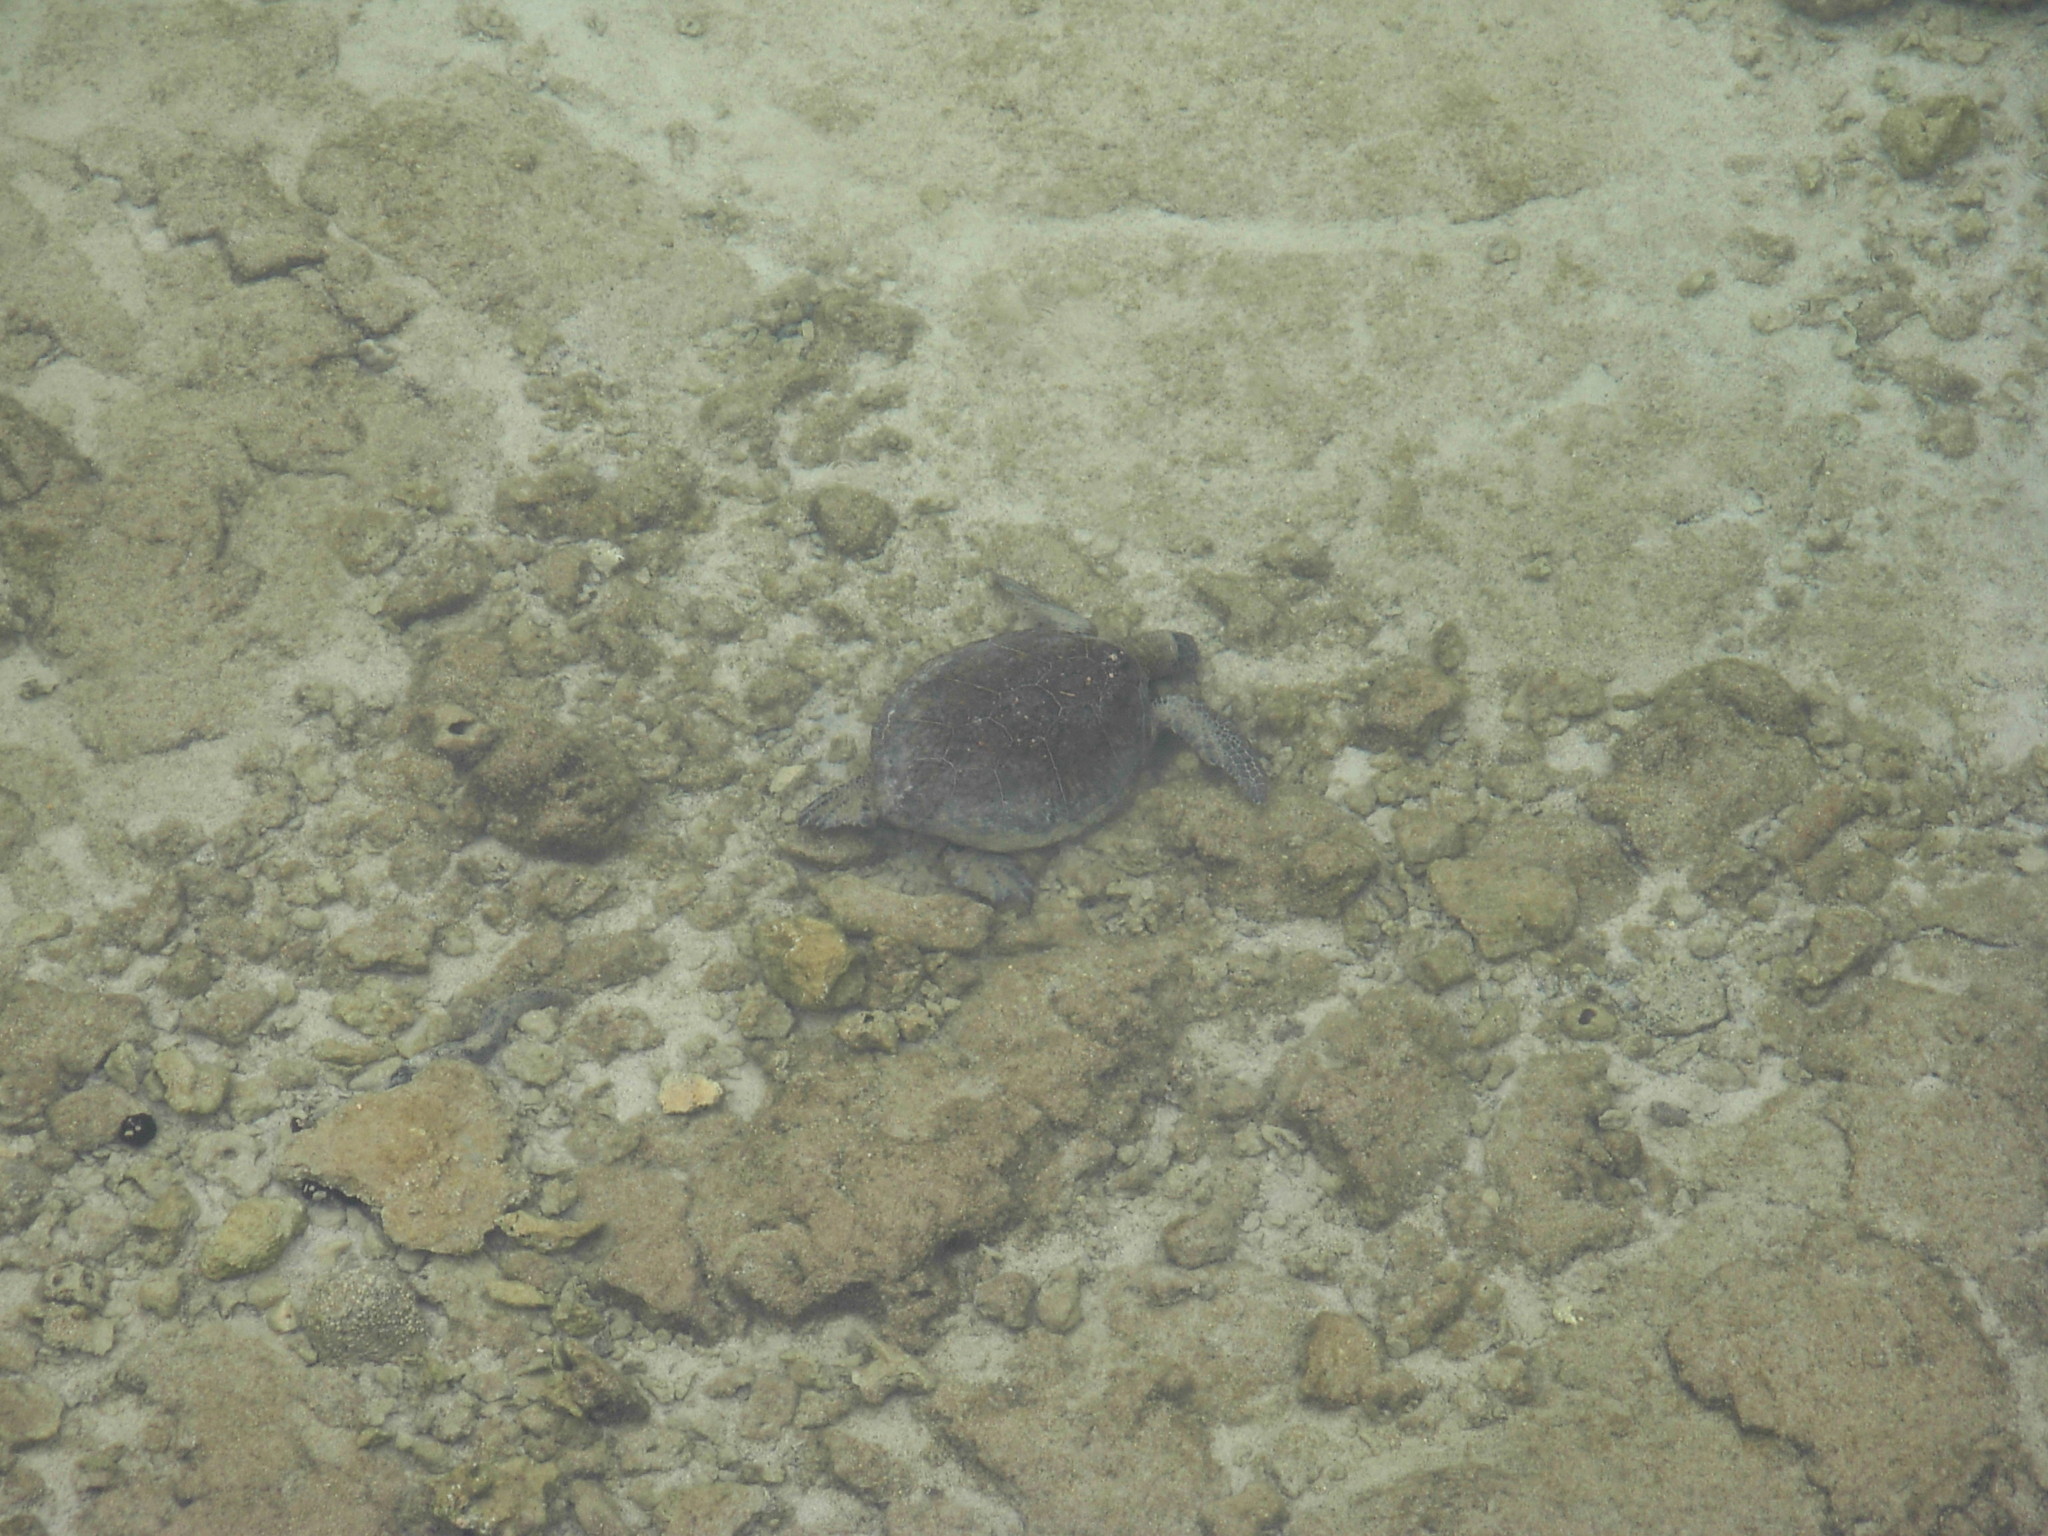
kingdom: Animalia
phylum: Chordata
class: Testudines
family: Cheloniidae
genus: Chelonia
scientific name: Chelonia mydas
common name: Green turtle
